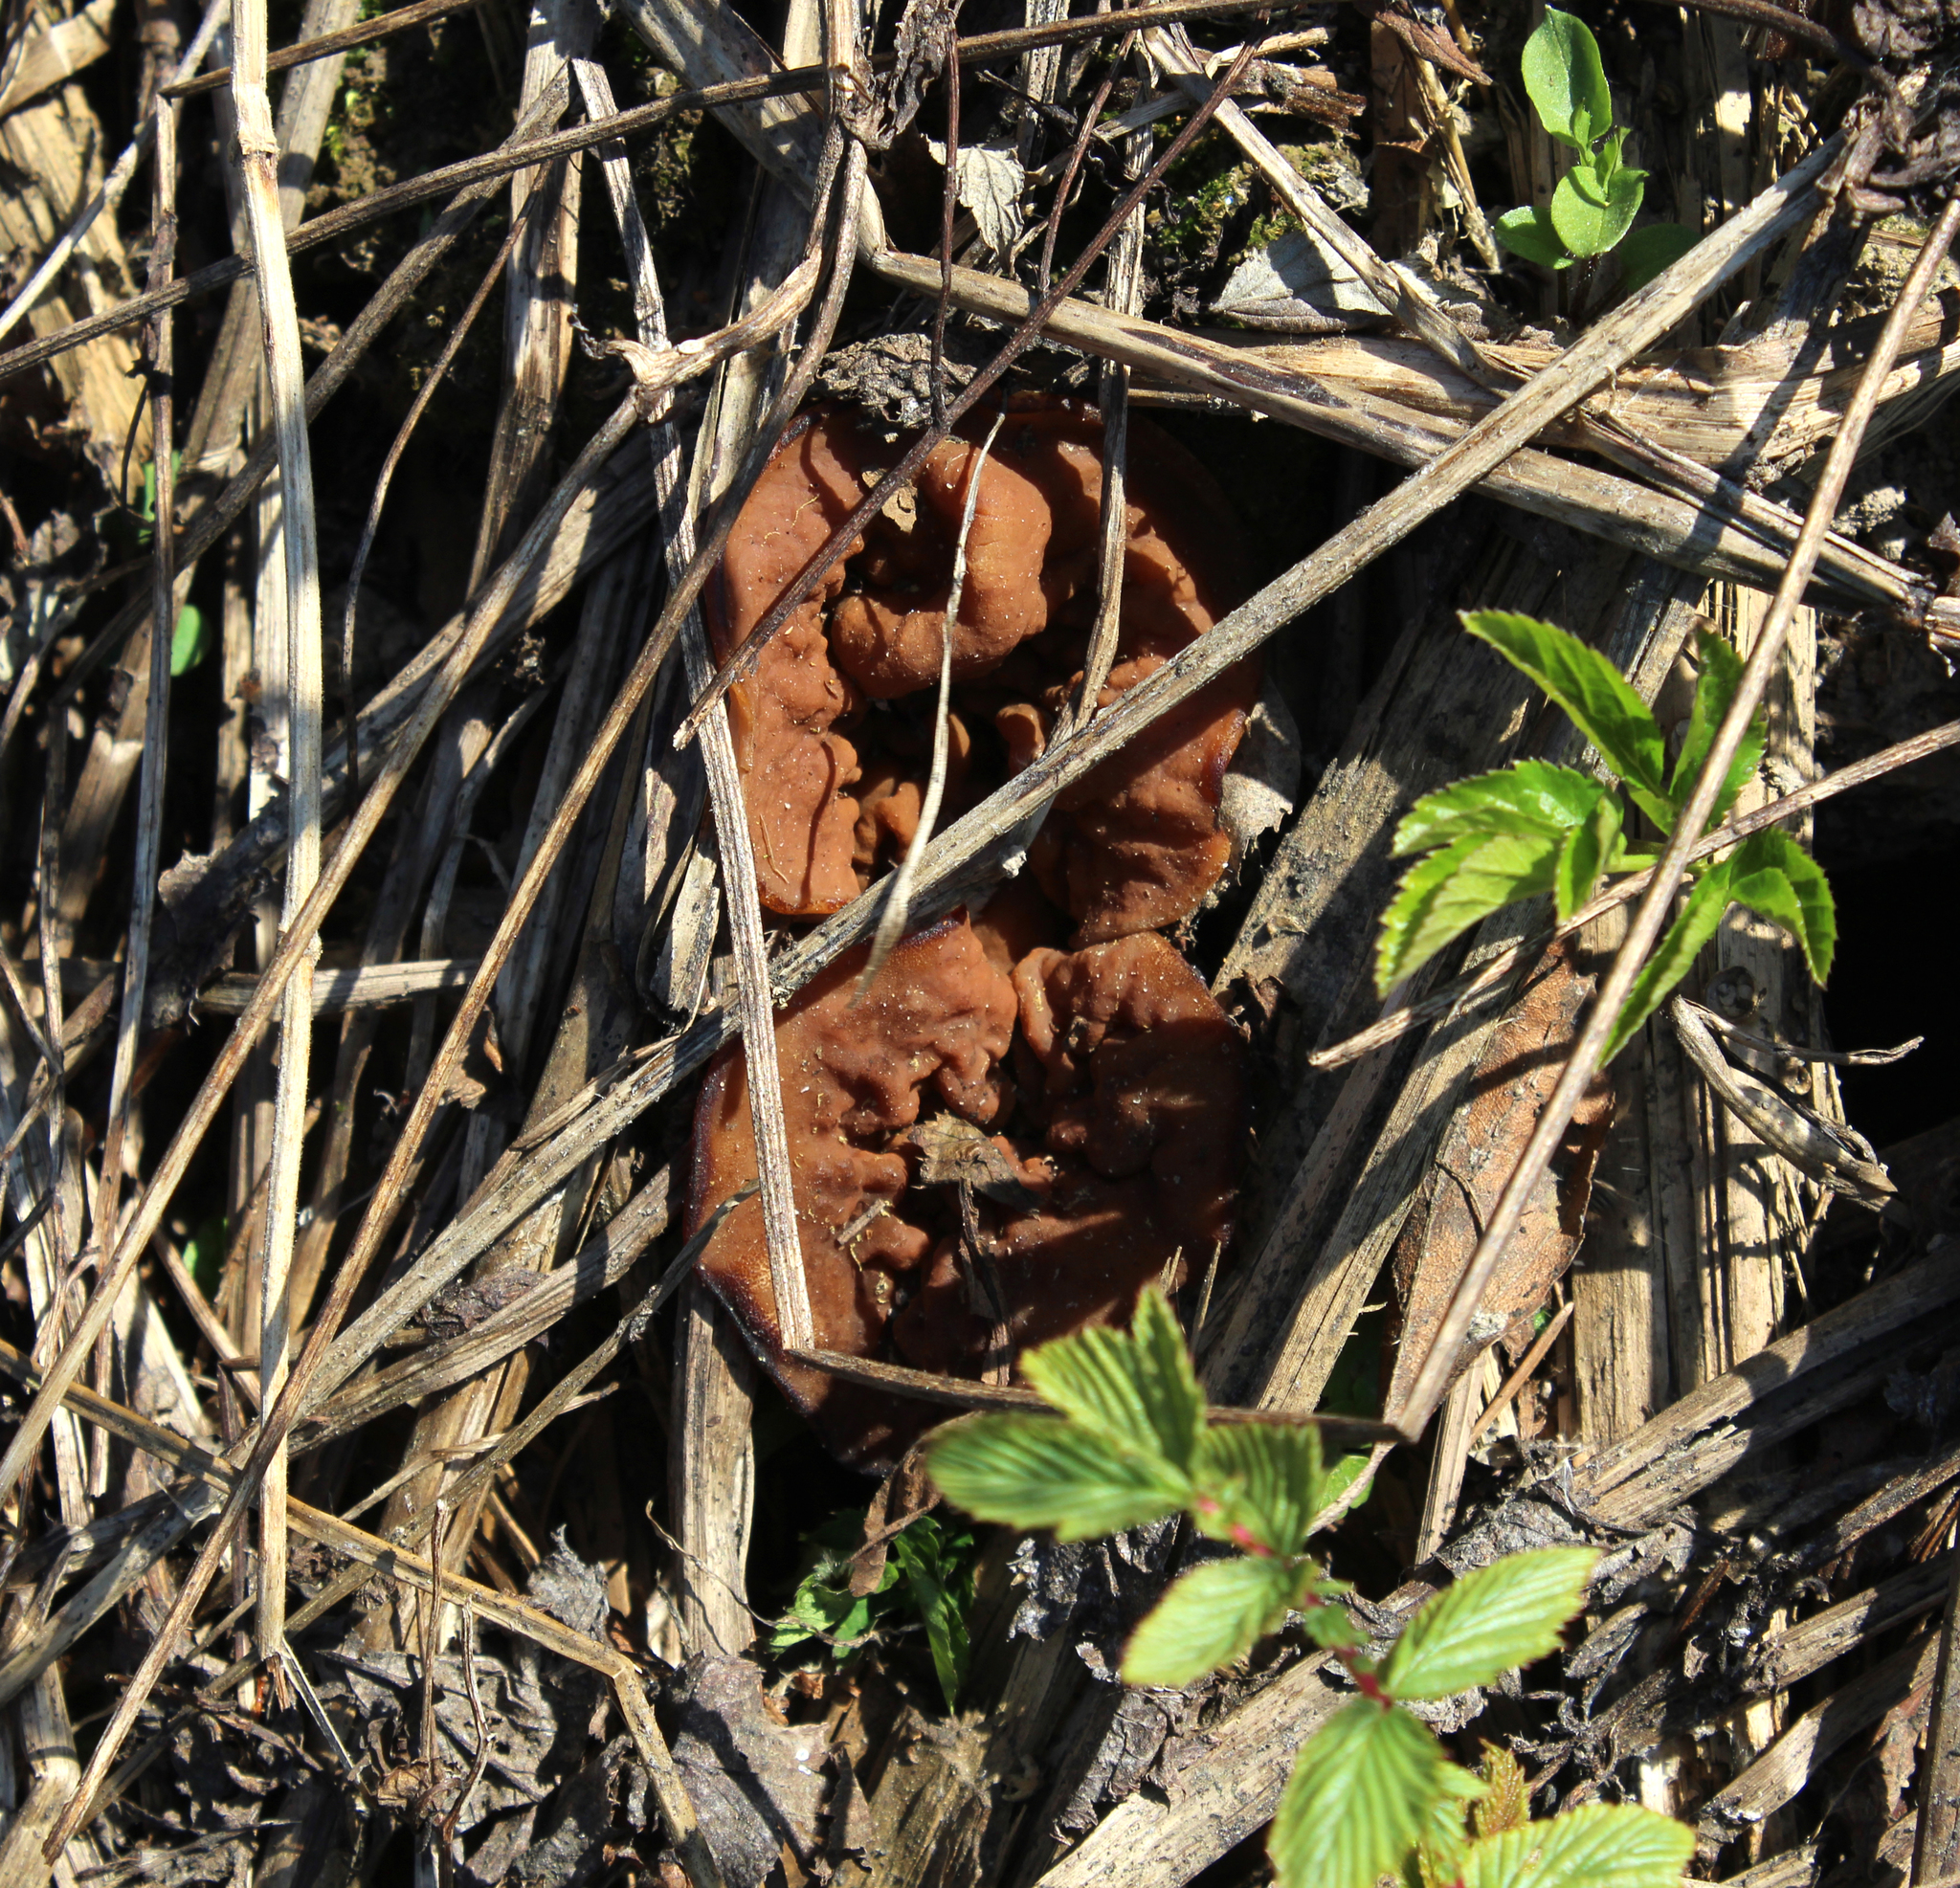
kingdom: Fungi
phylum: Ascomycota
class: Pezizomycetes
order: Pezizales
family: Discinaceae
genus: Discina
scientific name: Discina ancilis
